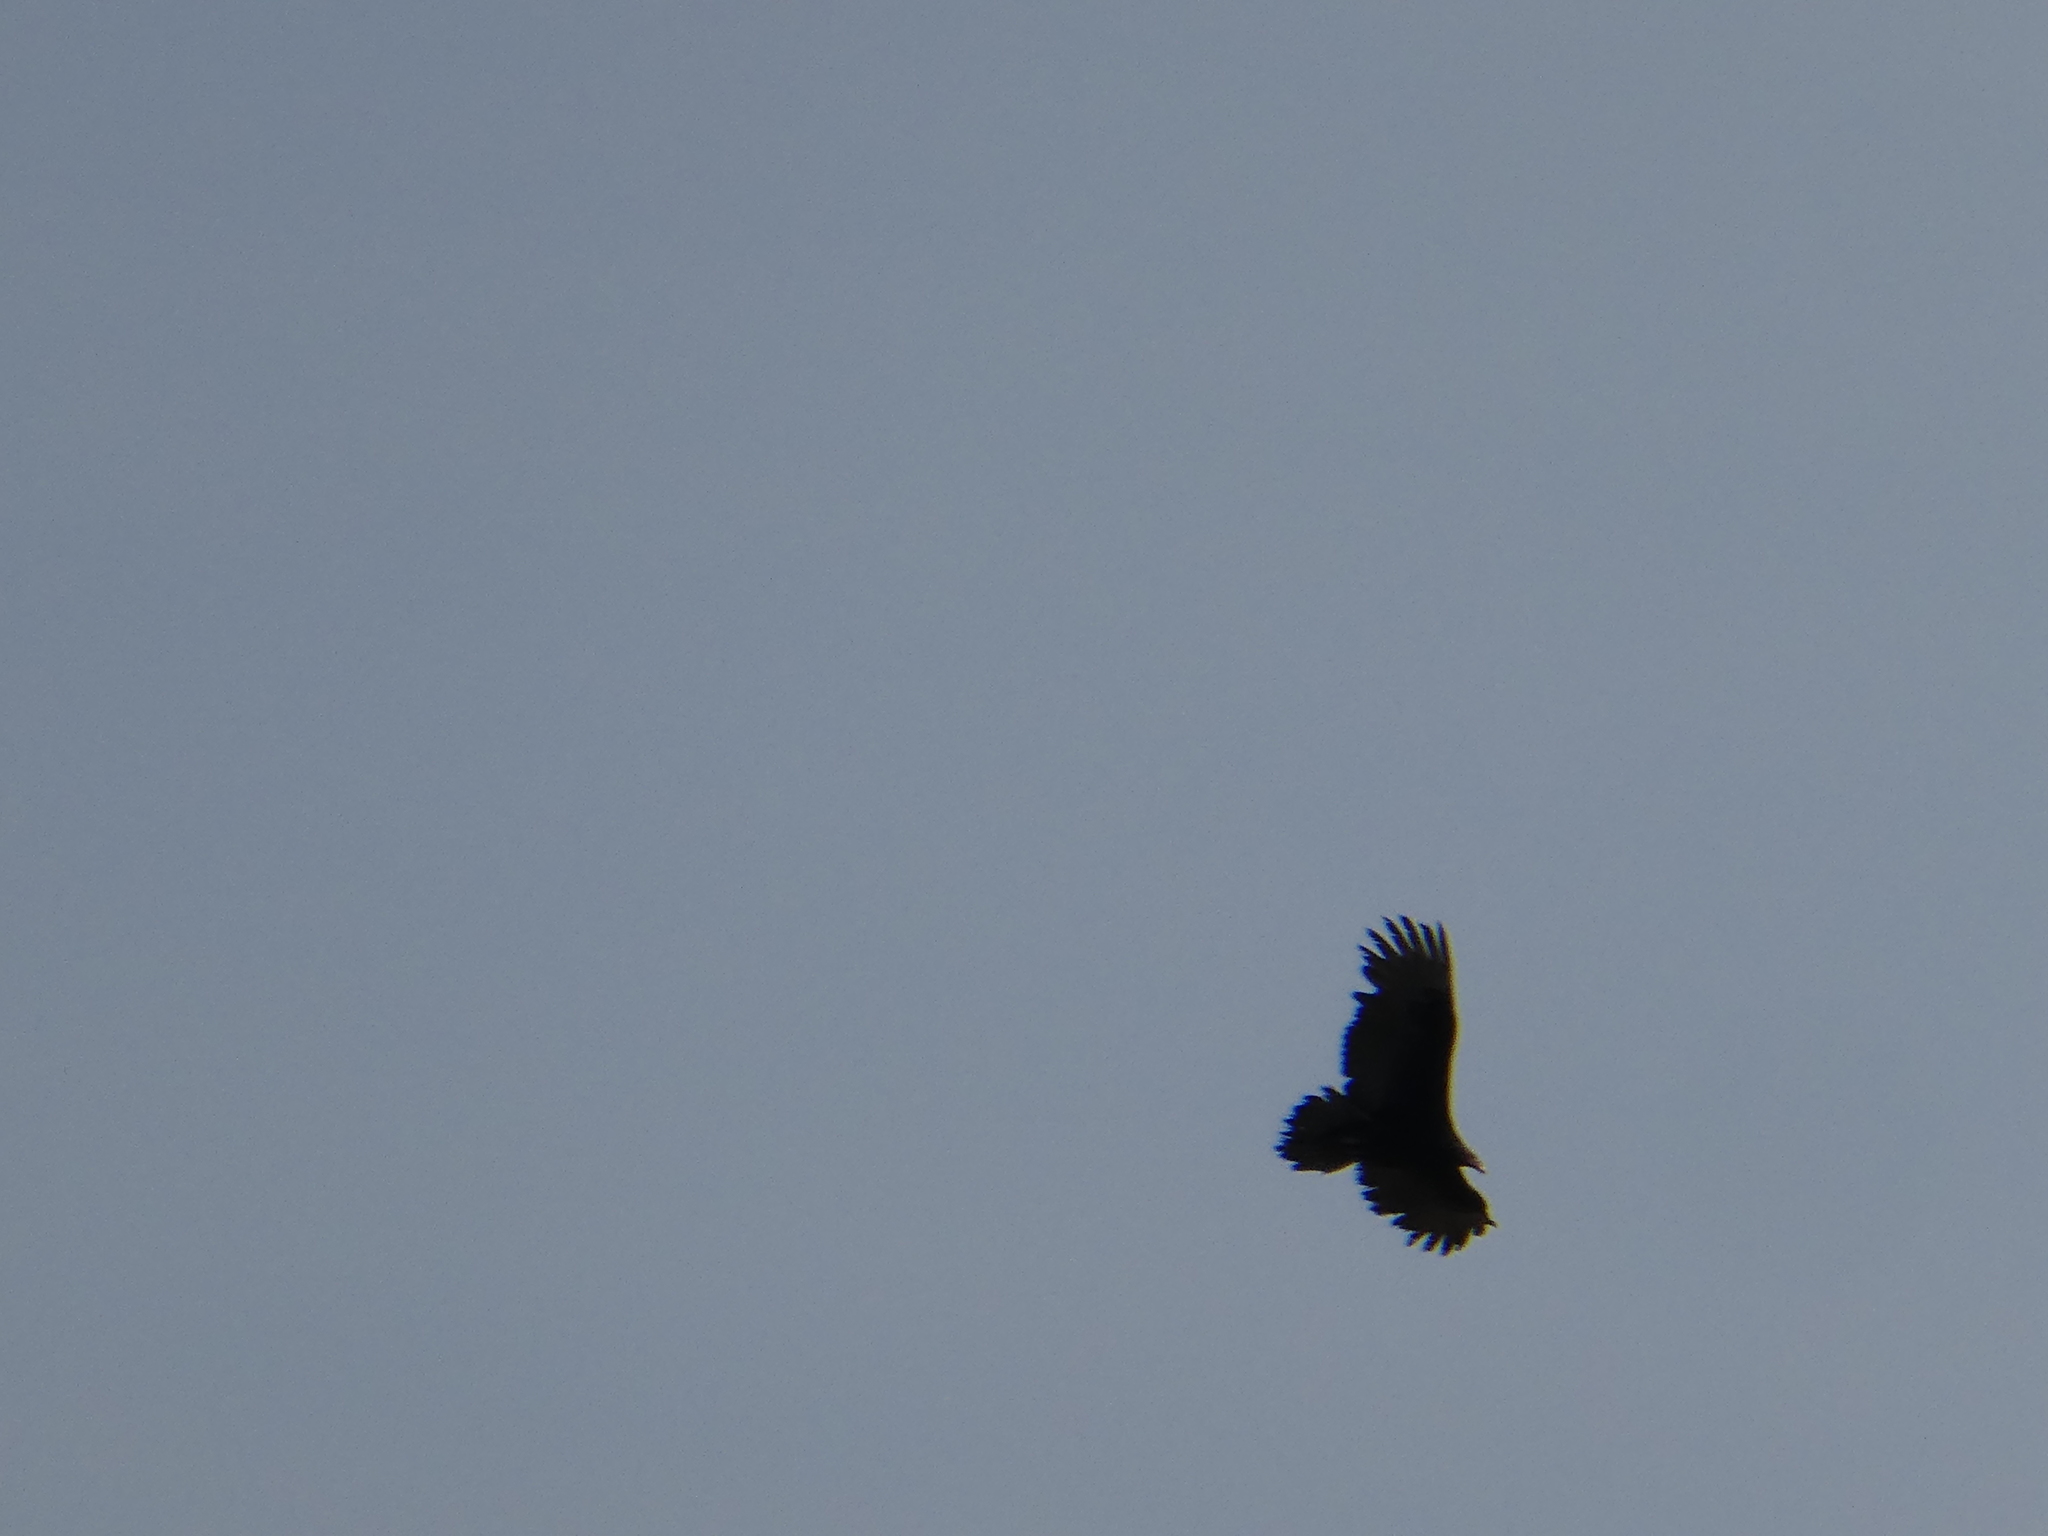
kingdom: Animalia
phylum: Chordata
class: Aves
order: Accipitriformes
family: Cathartidae
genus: Cathartes
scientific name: Cathartes aura
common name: Turkey vulture
